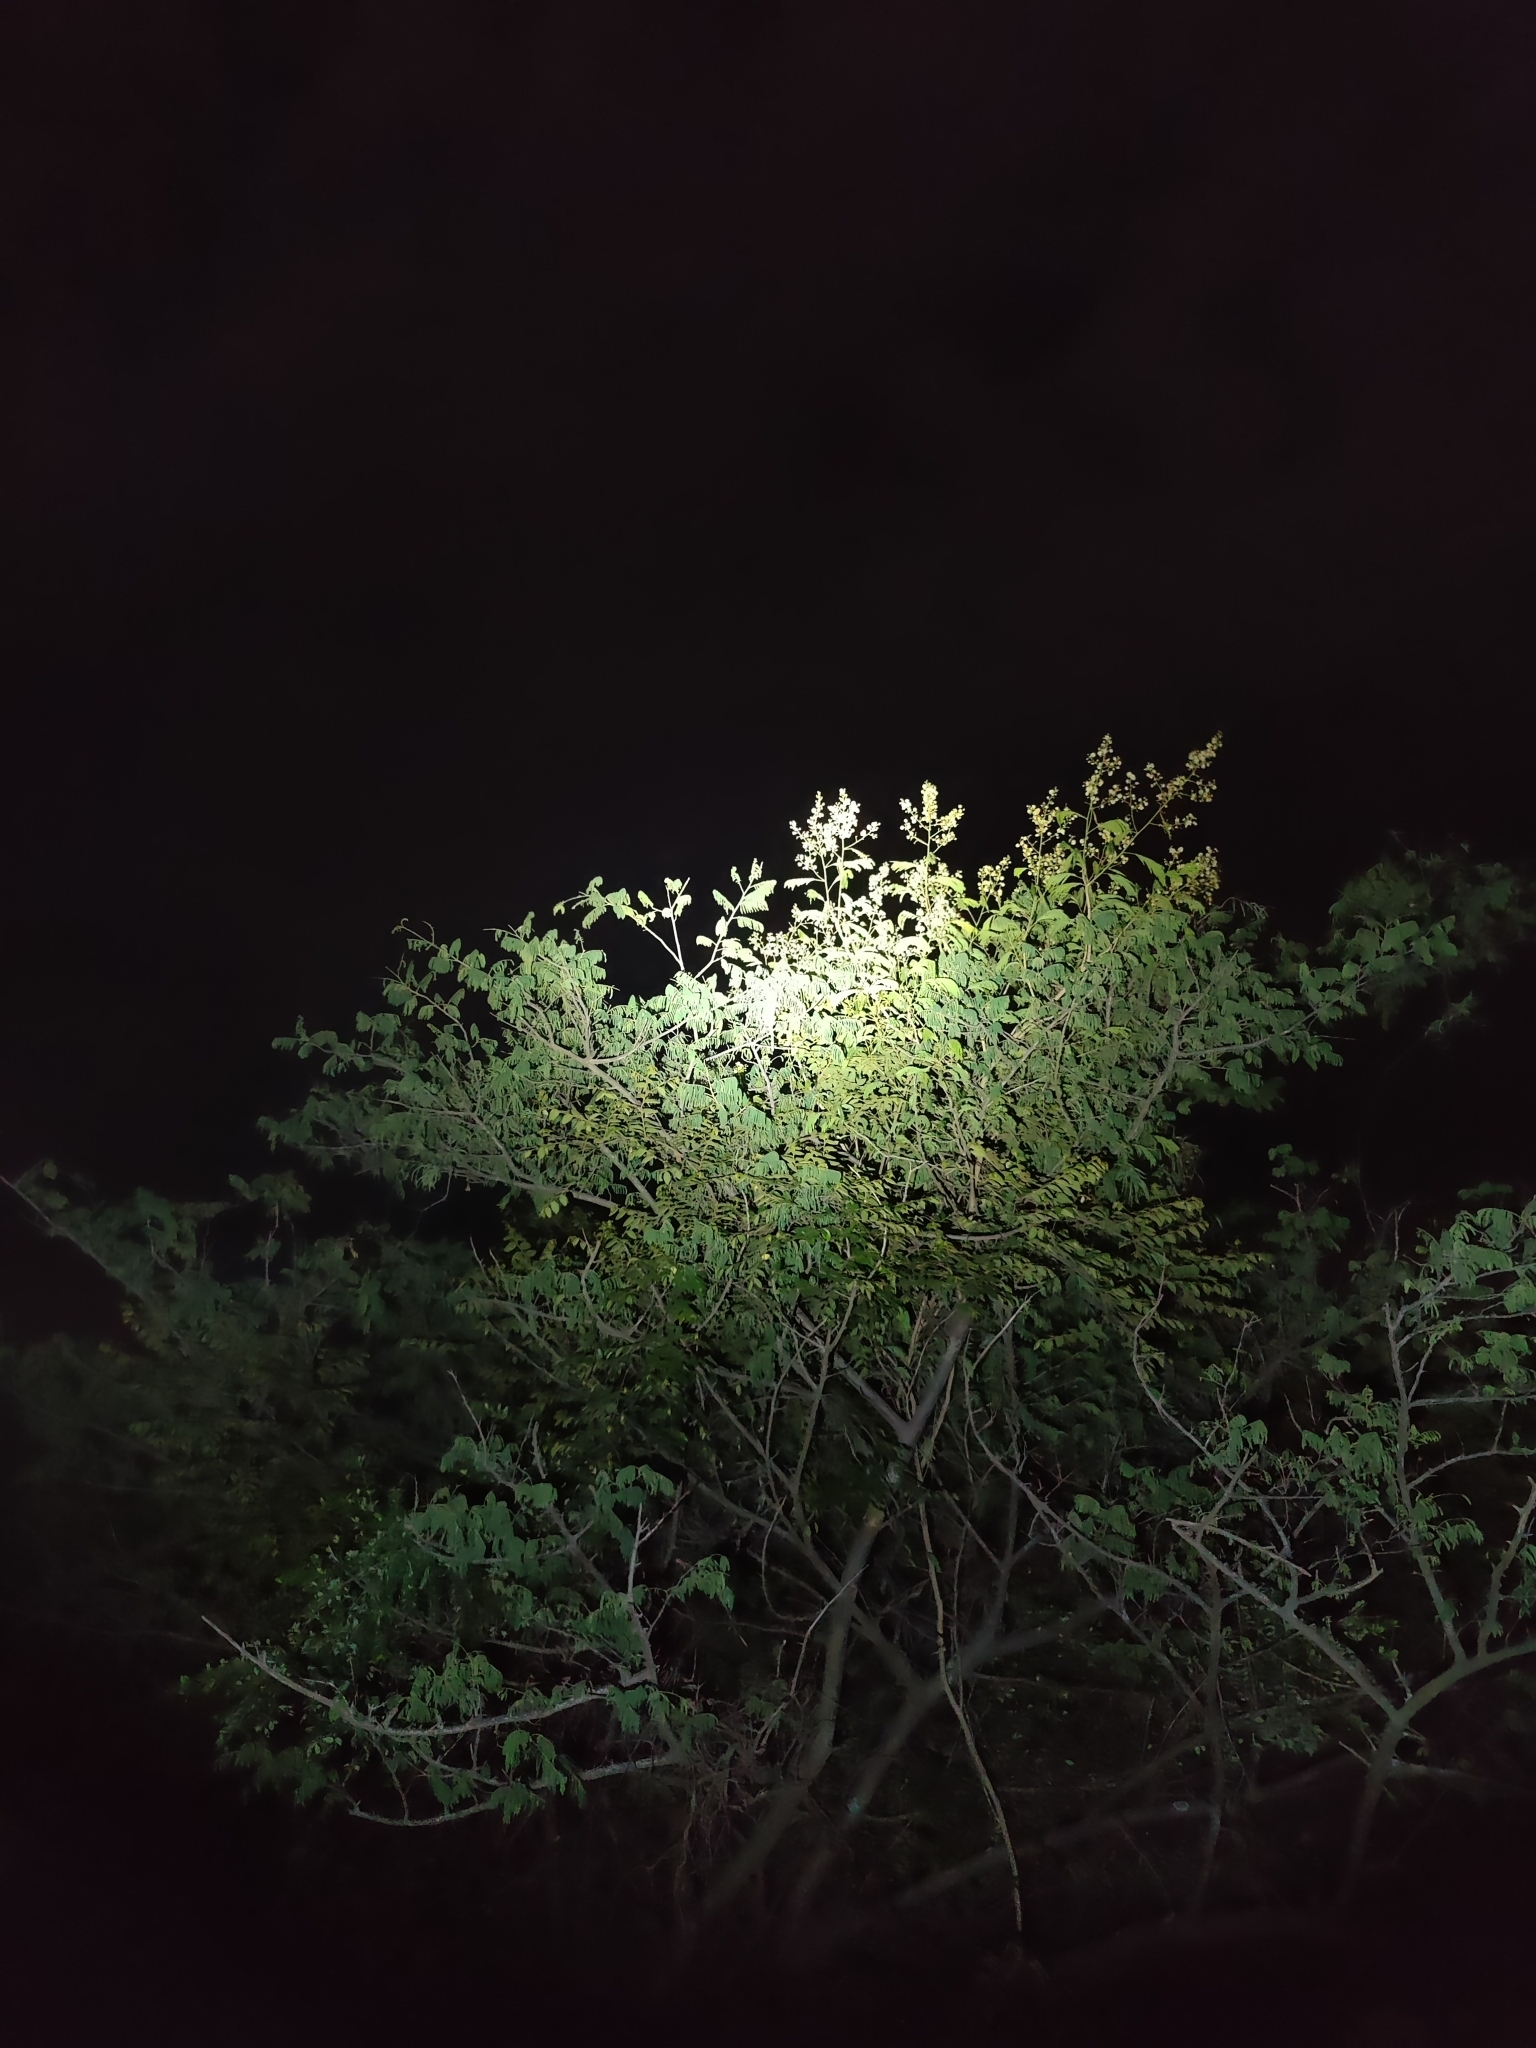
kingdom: Animalia
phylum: Chordata
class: Squamata
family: Chamaeleonidae
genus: Chamaeleo
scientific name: Chamaeleo zeylanicus
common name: Indian chameleon
